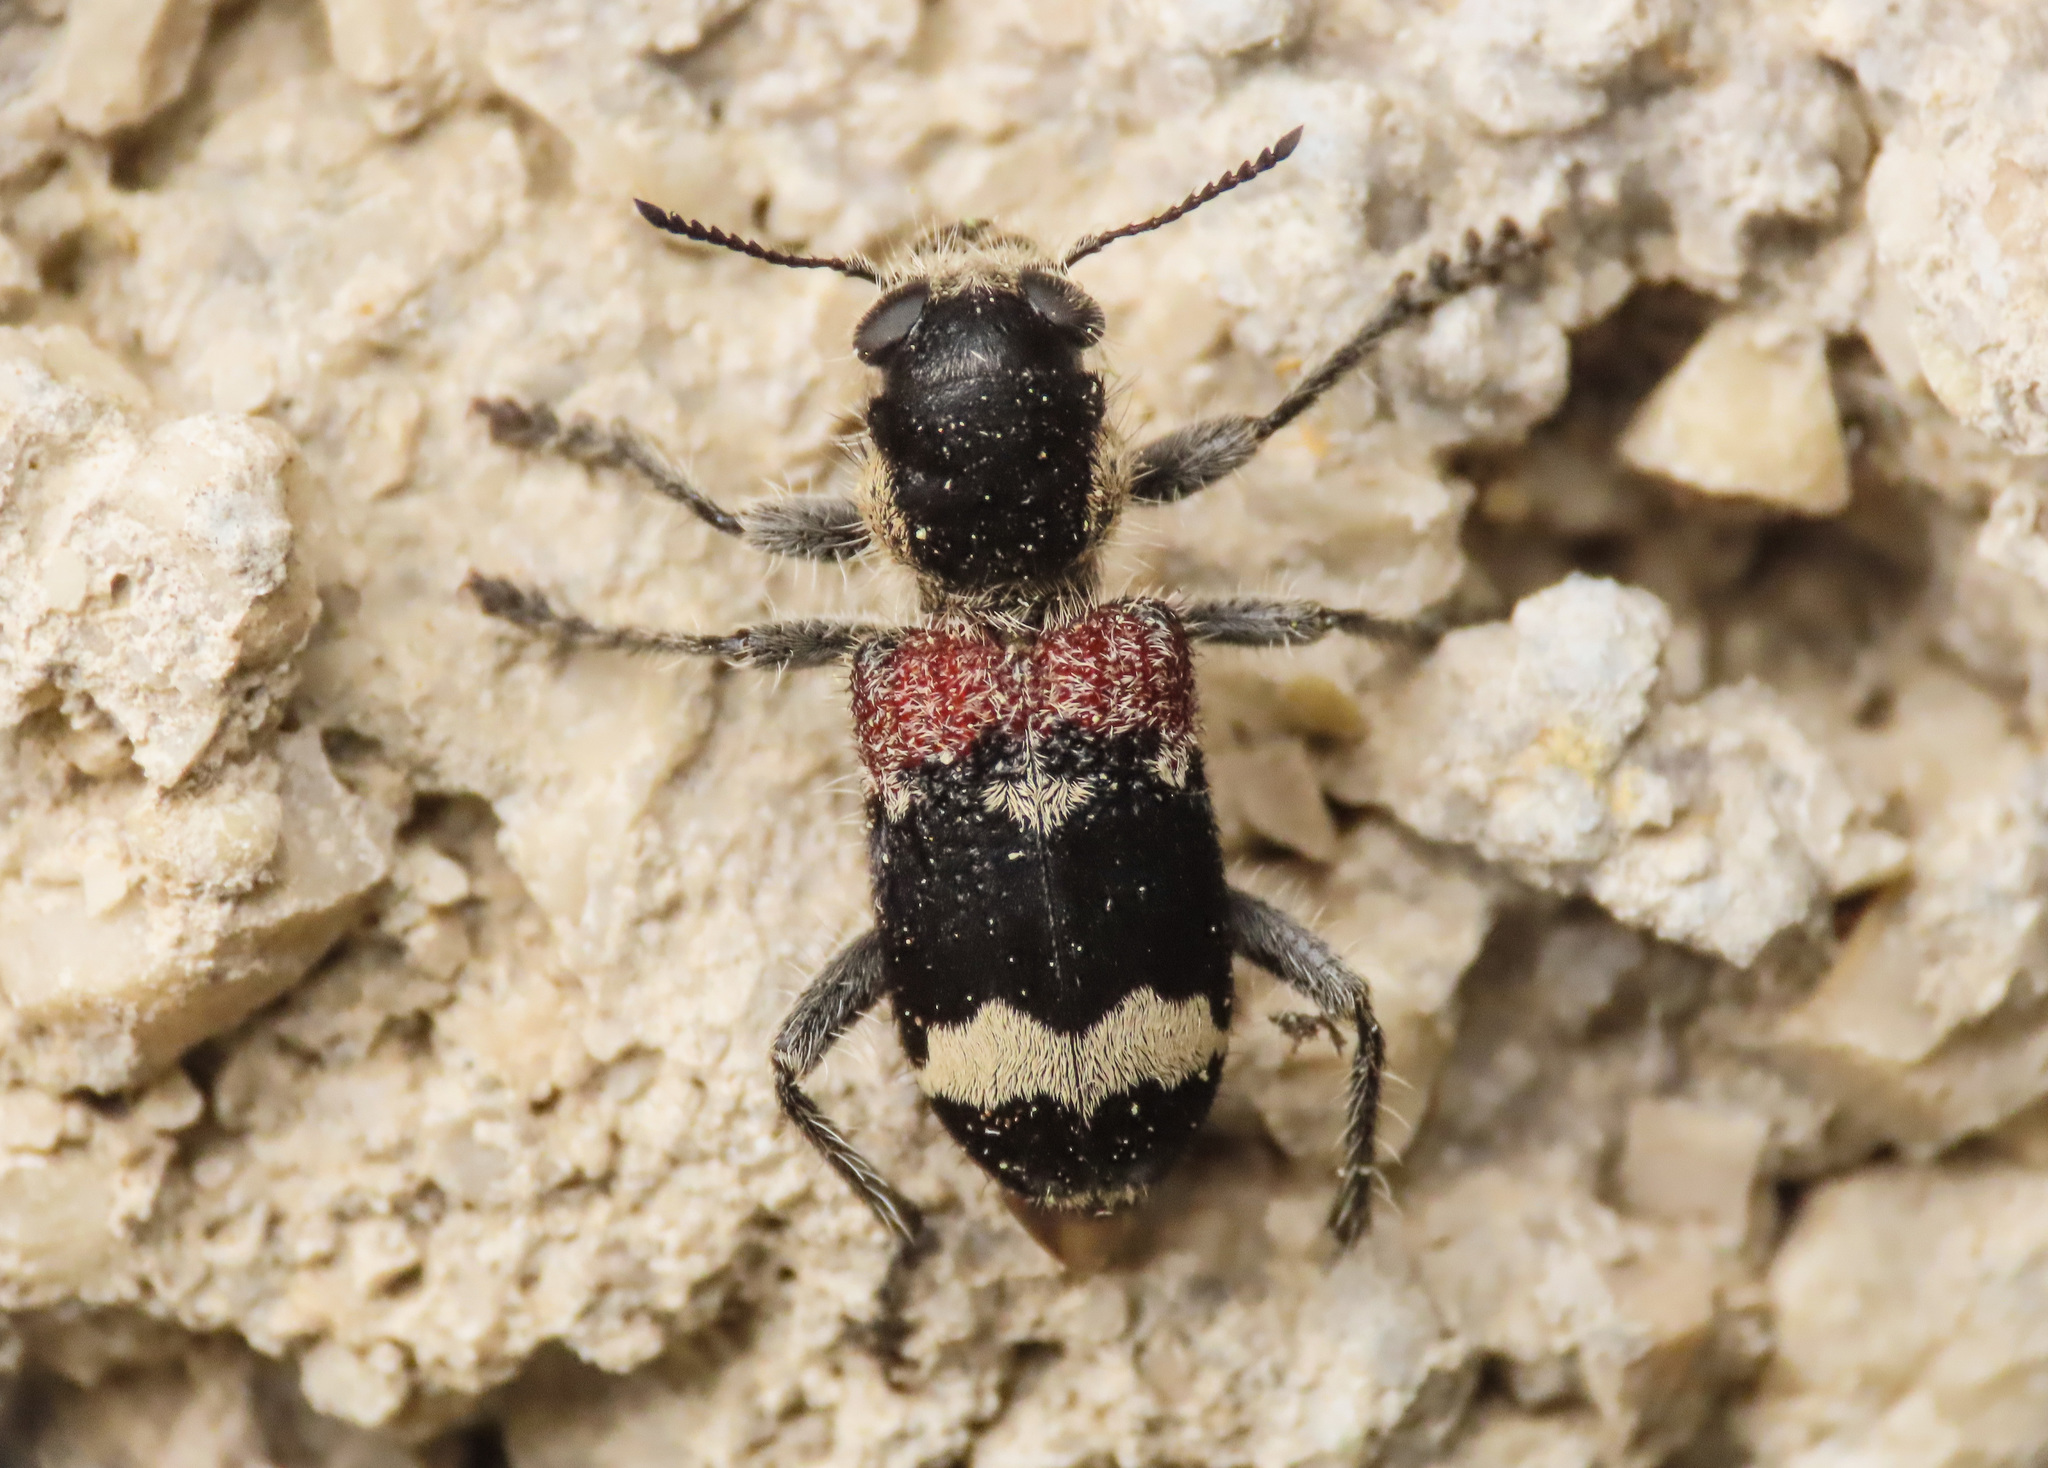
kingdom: Animalia
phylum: Arthropoda
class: Insecta
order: Coleoptera
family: Cleridae
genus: Clerus
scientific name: Clerus mutillarius
